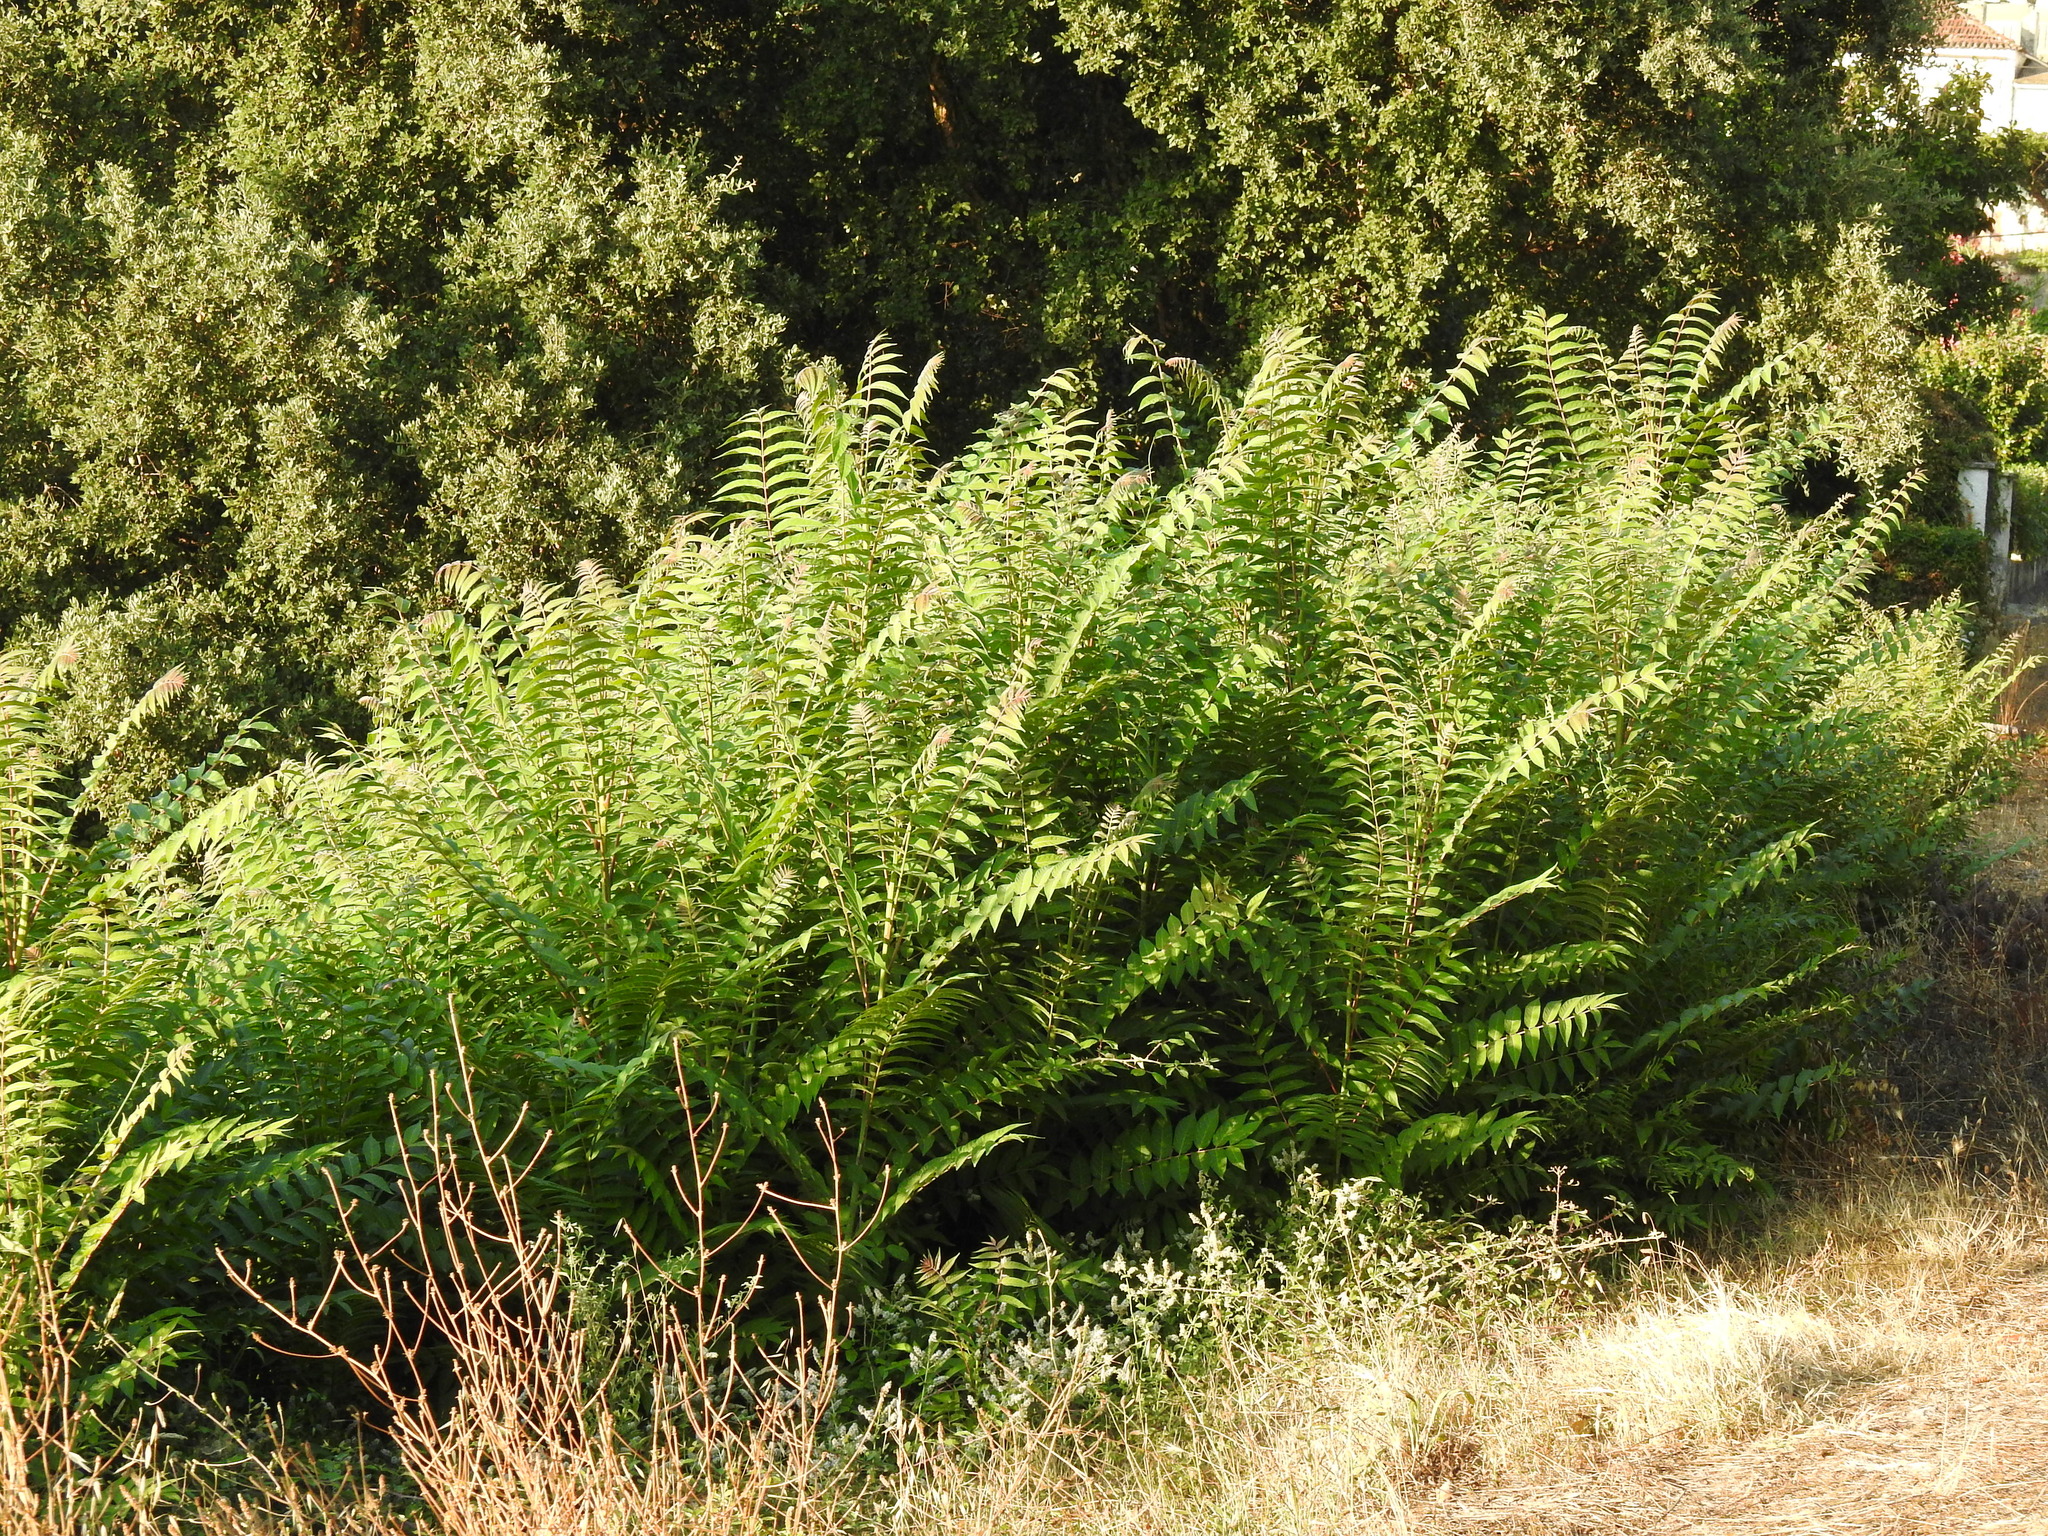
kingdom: Plantae
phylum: Tracheophyta
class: Magnoliopsida
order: Sapindales
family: Simaroubaceae
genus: Ailanthus
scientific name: Ailanthus altissima
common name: Tree-of-heaven
